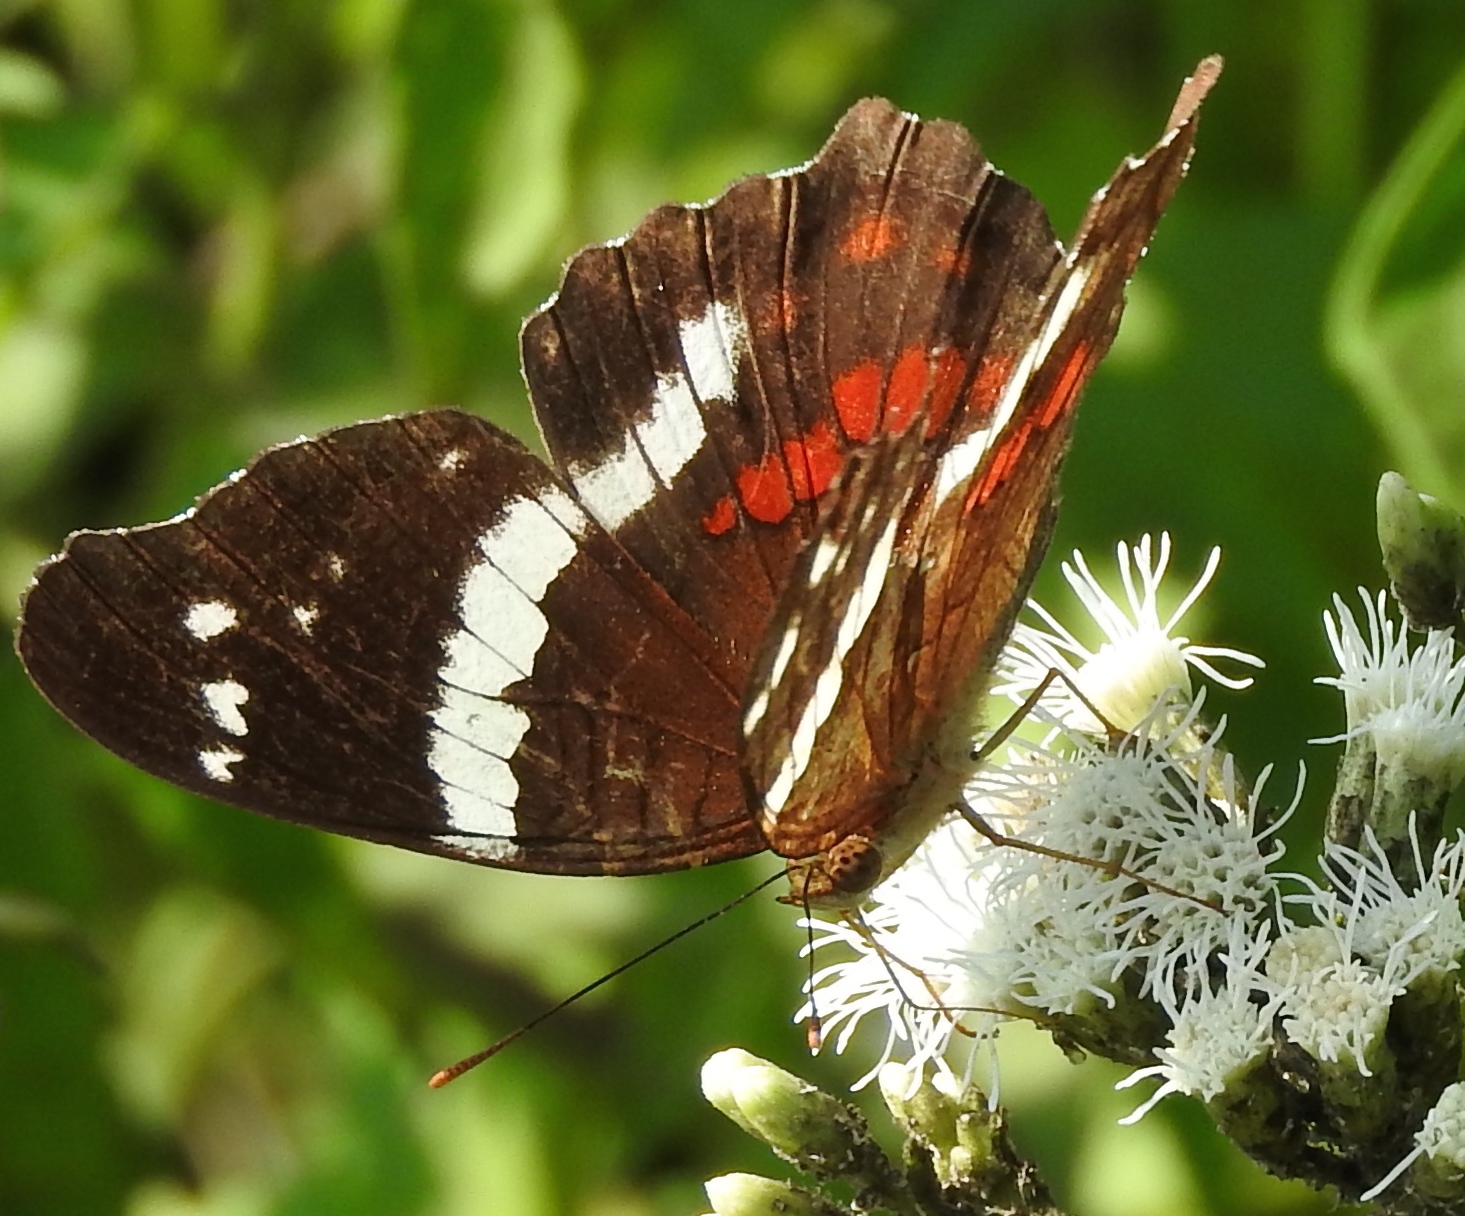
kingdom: Animalia
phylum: Arthropoda
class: Insecta
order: Lepidoptera
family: Nymphalidae
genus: Anartia
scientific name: Anartia fatima
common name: Banded peacock
